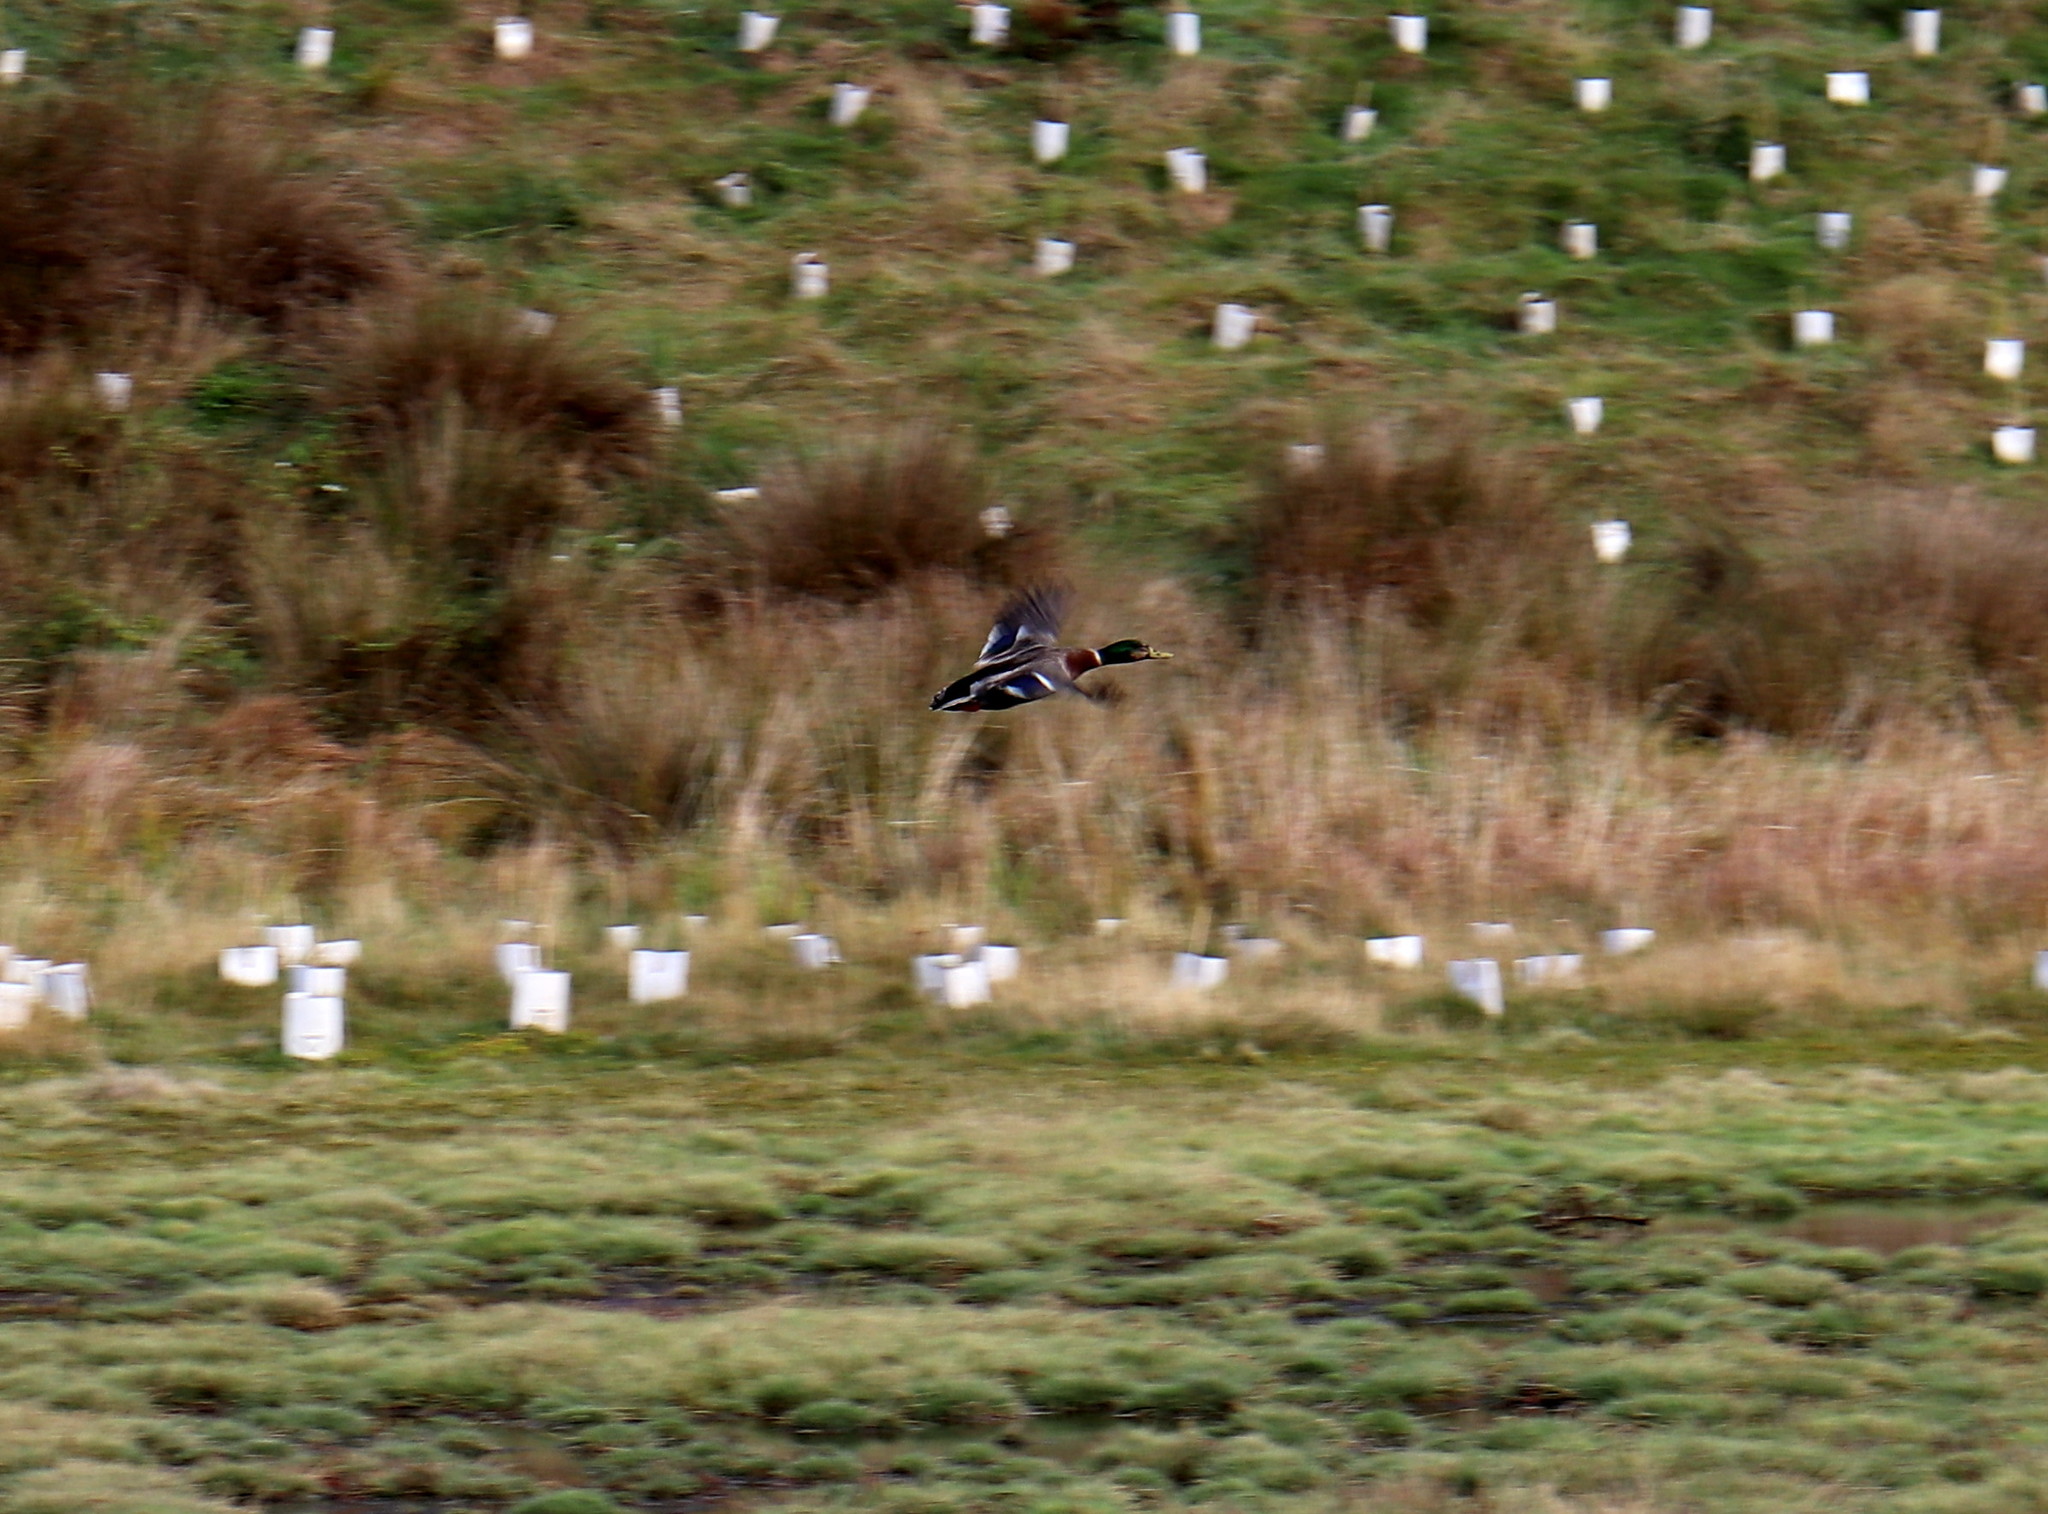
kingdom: Animalia
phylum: Chordata
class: Aves
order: Anseriformes
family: Anatidae
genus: Anas
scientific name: Anas platyrhynchos
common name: Mallard
